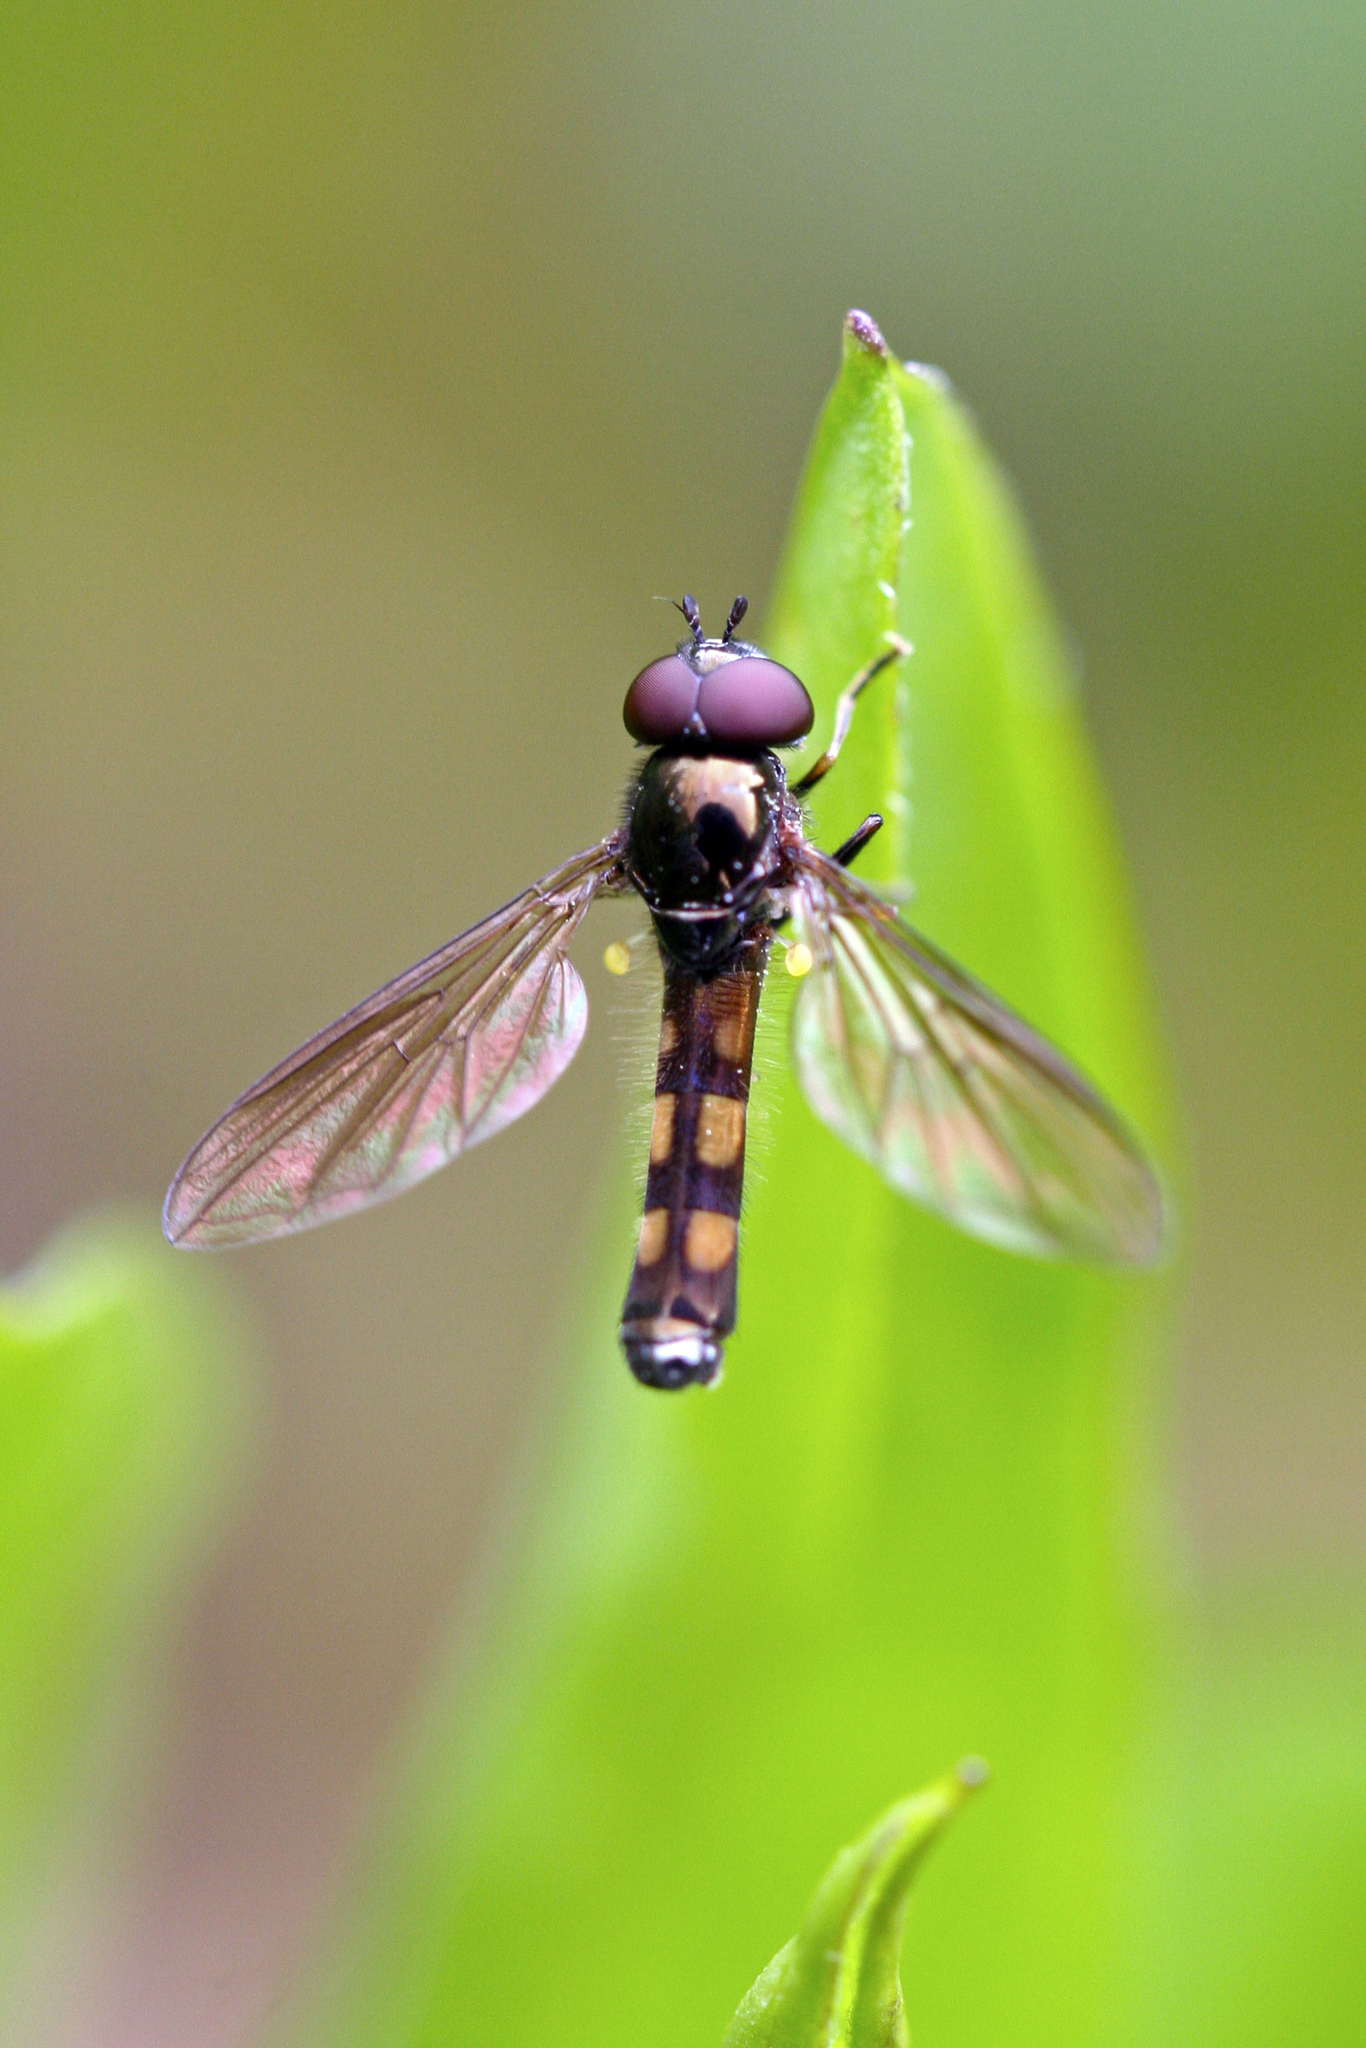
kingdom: Animalia
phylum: Arthropoda
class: Insecta
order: Diptera
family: Syrphidae
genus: Melanostoma
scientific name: Melanostoma mellina
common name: Hover fly
